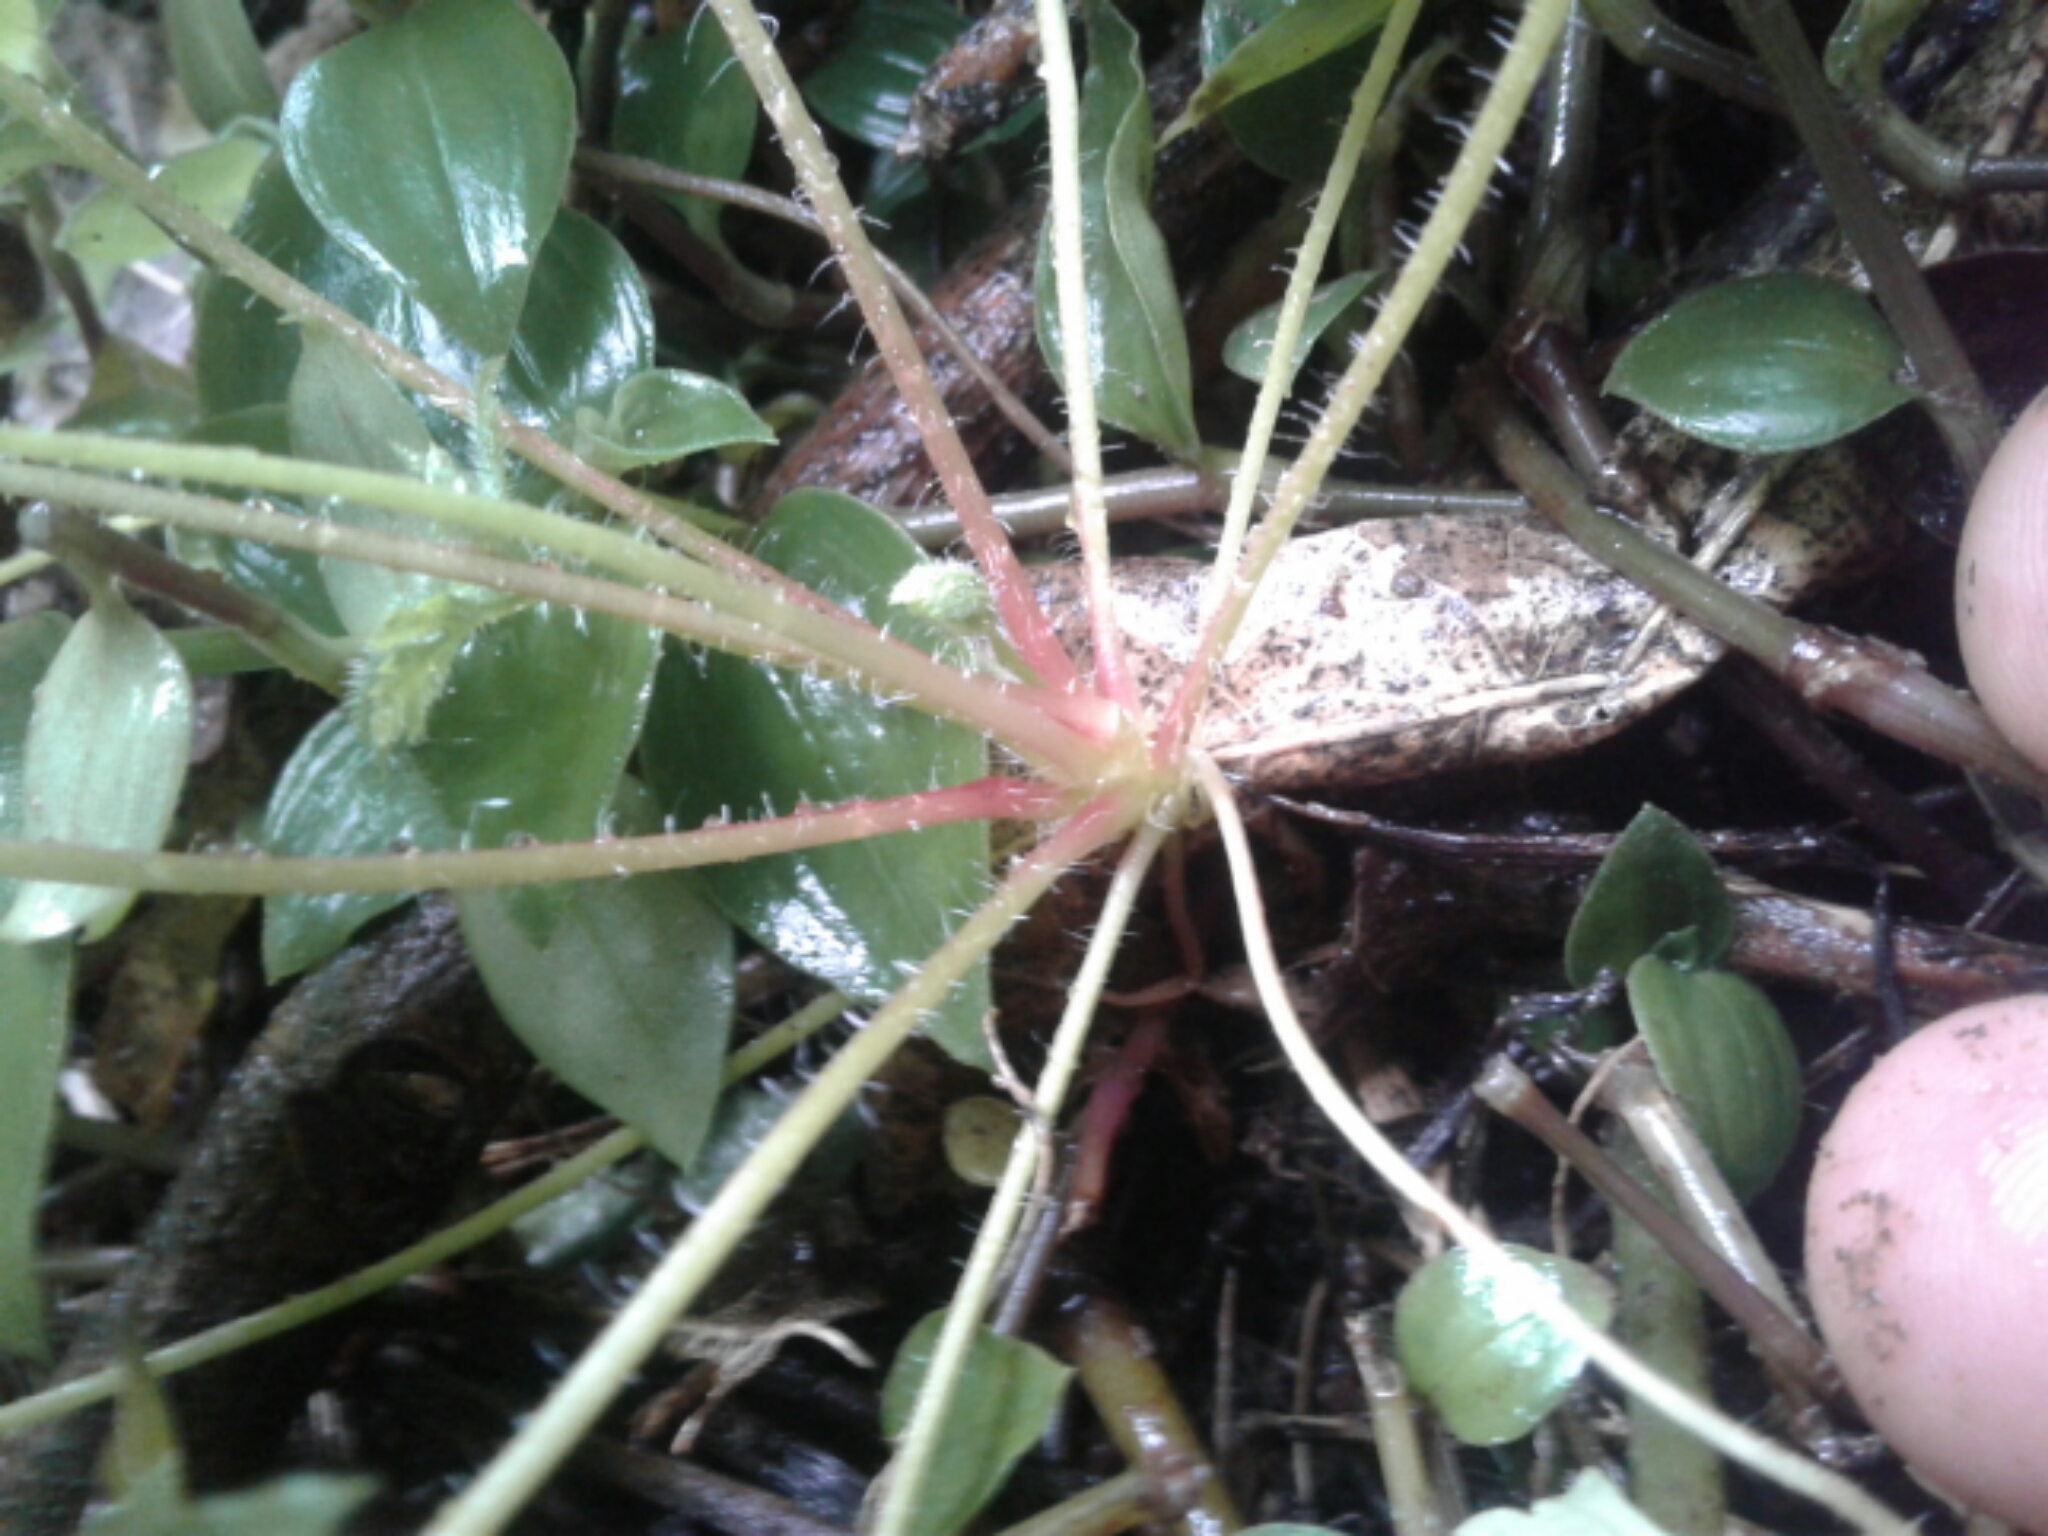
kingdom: Plantae
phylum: Tracheophyta
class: Magnoliopsida
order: Geraniales
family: Geraniaceae
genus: Geranium
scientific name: Geranium robertianum
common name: Herb-robert
